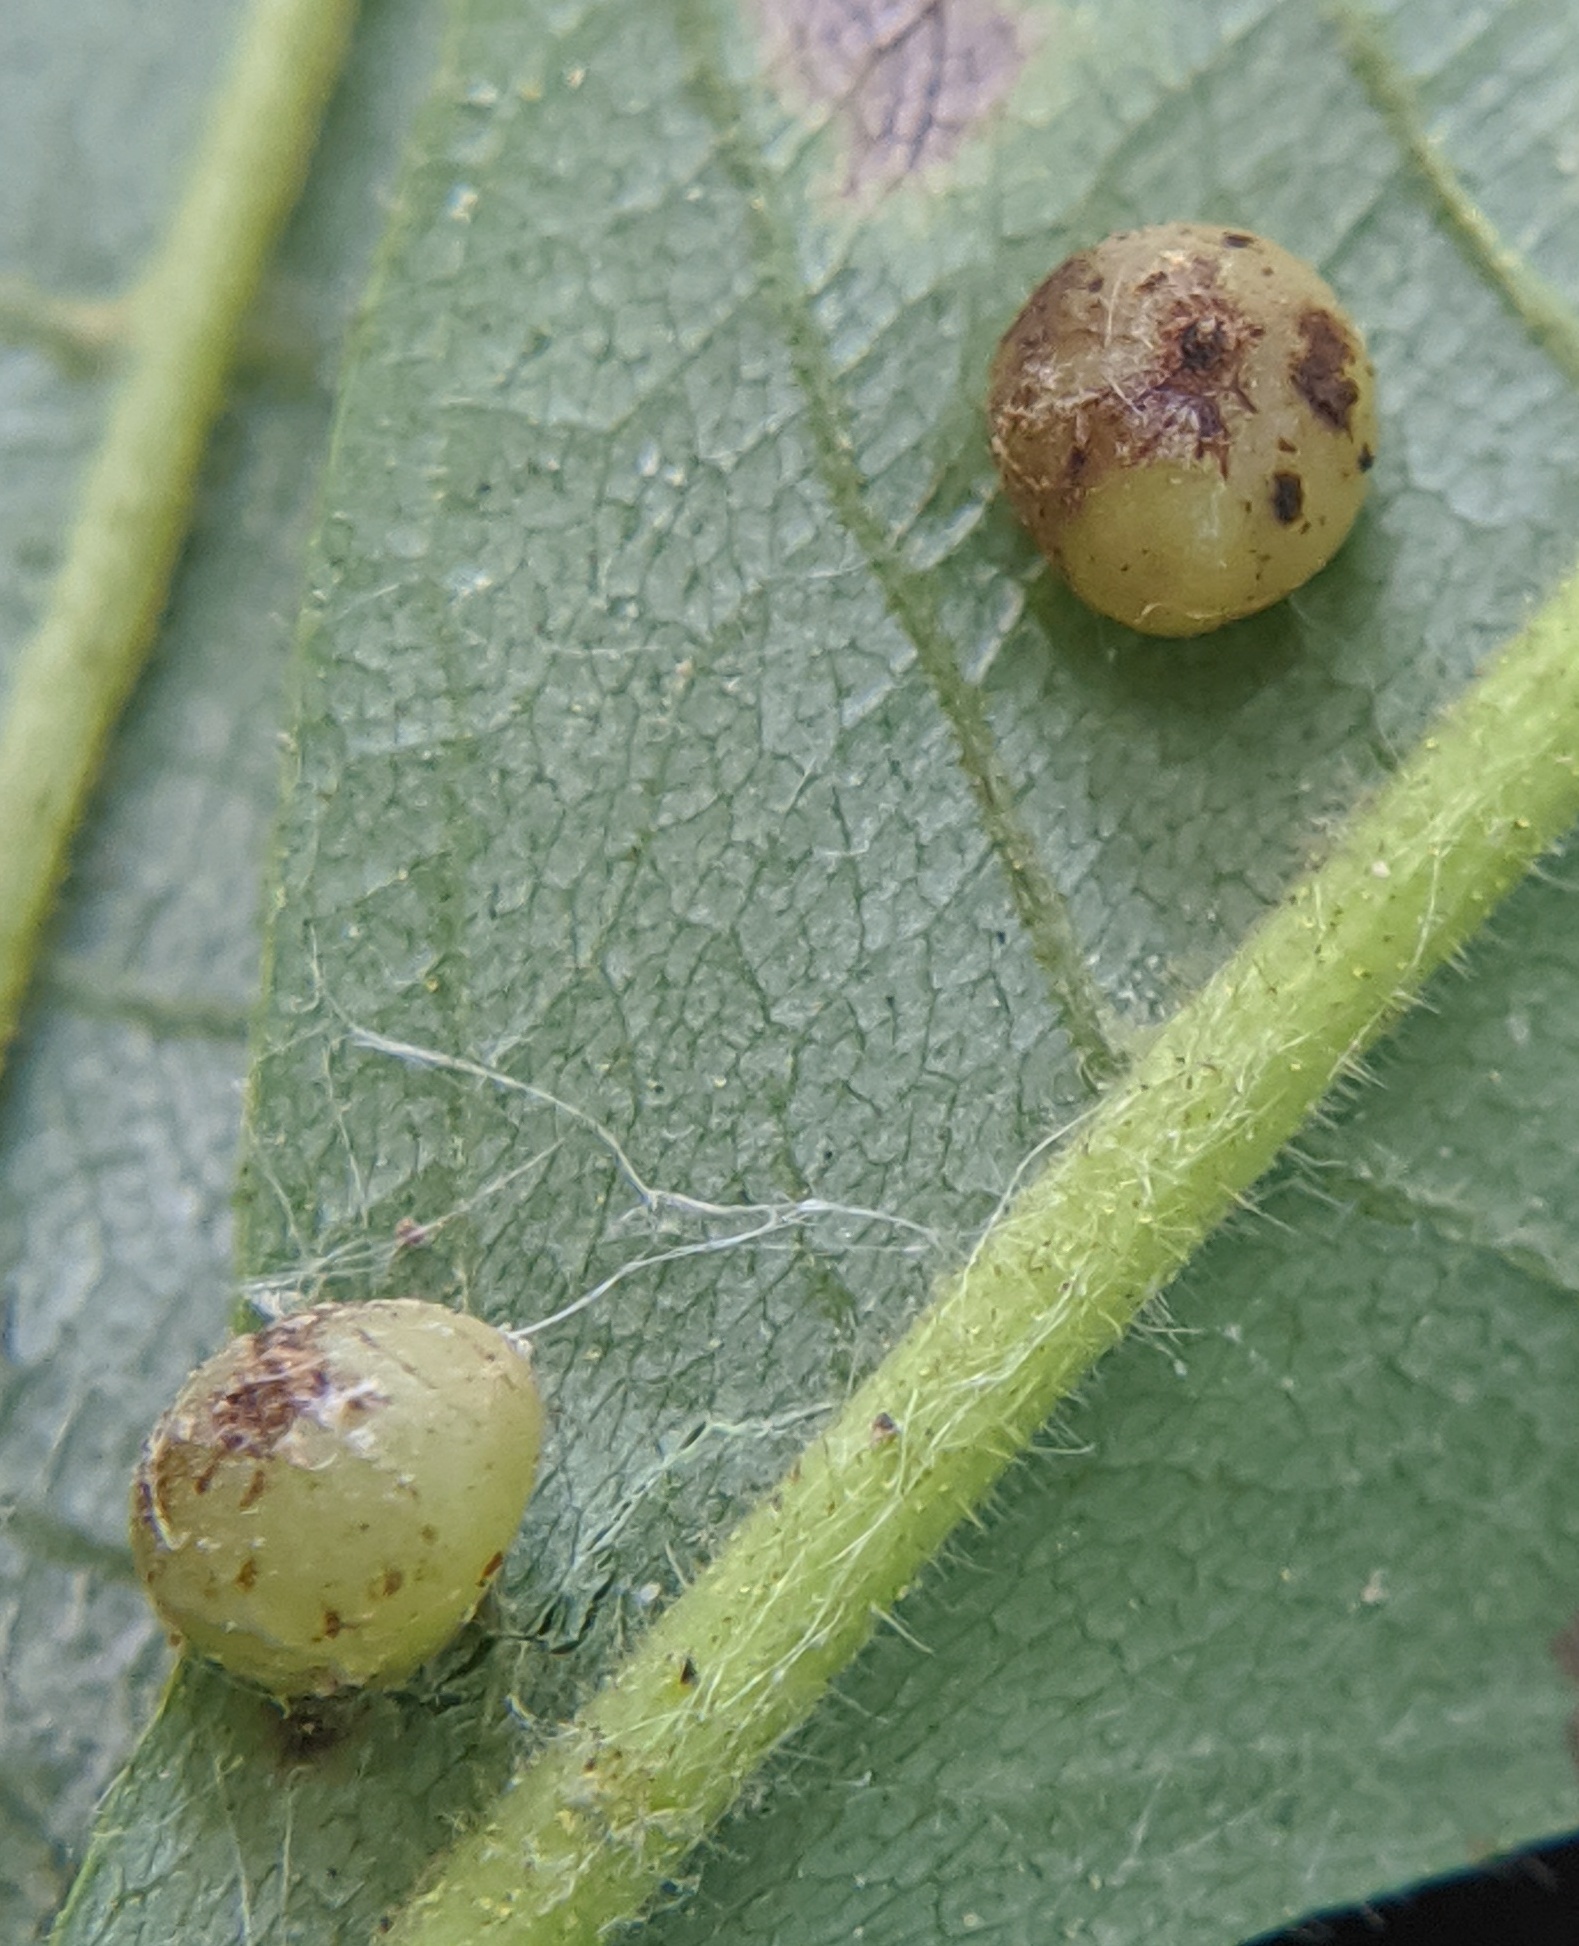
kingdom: Animalia
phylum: Arthropoda
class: Insecta
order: Diptera
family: Cecidomyiidae
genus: Caryomyia
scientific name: Caryomyia caryae
